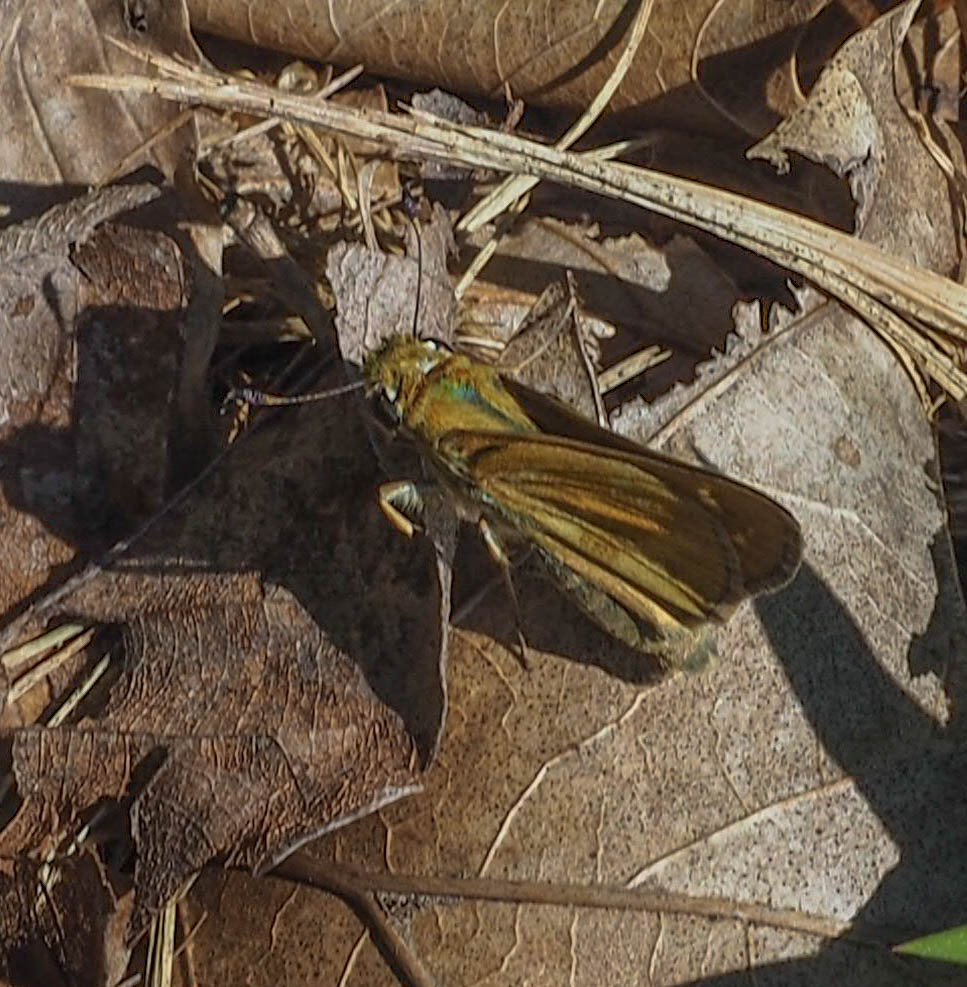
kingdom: Animalia
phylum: Arthropoda
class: Insecta
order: Lepidoptera
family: Hesperiidae
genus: Atalopedes
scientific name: Atalopedes
